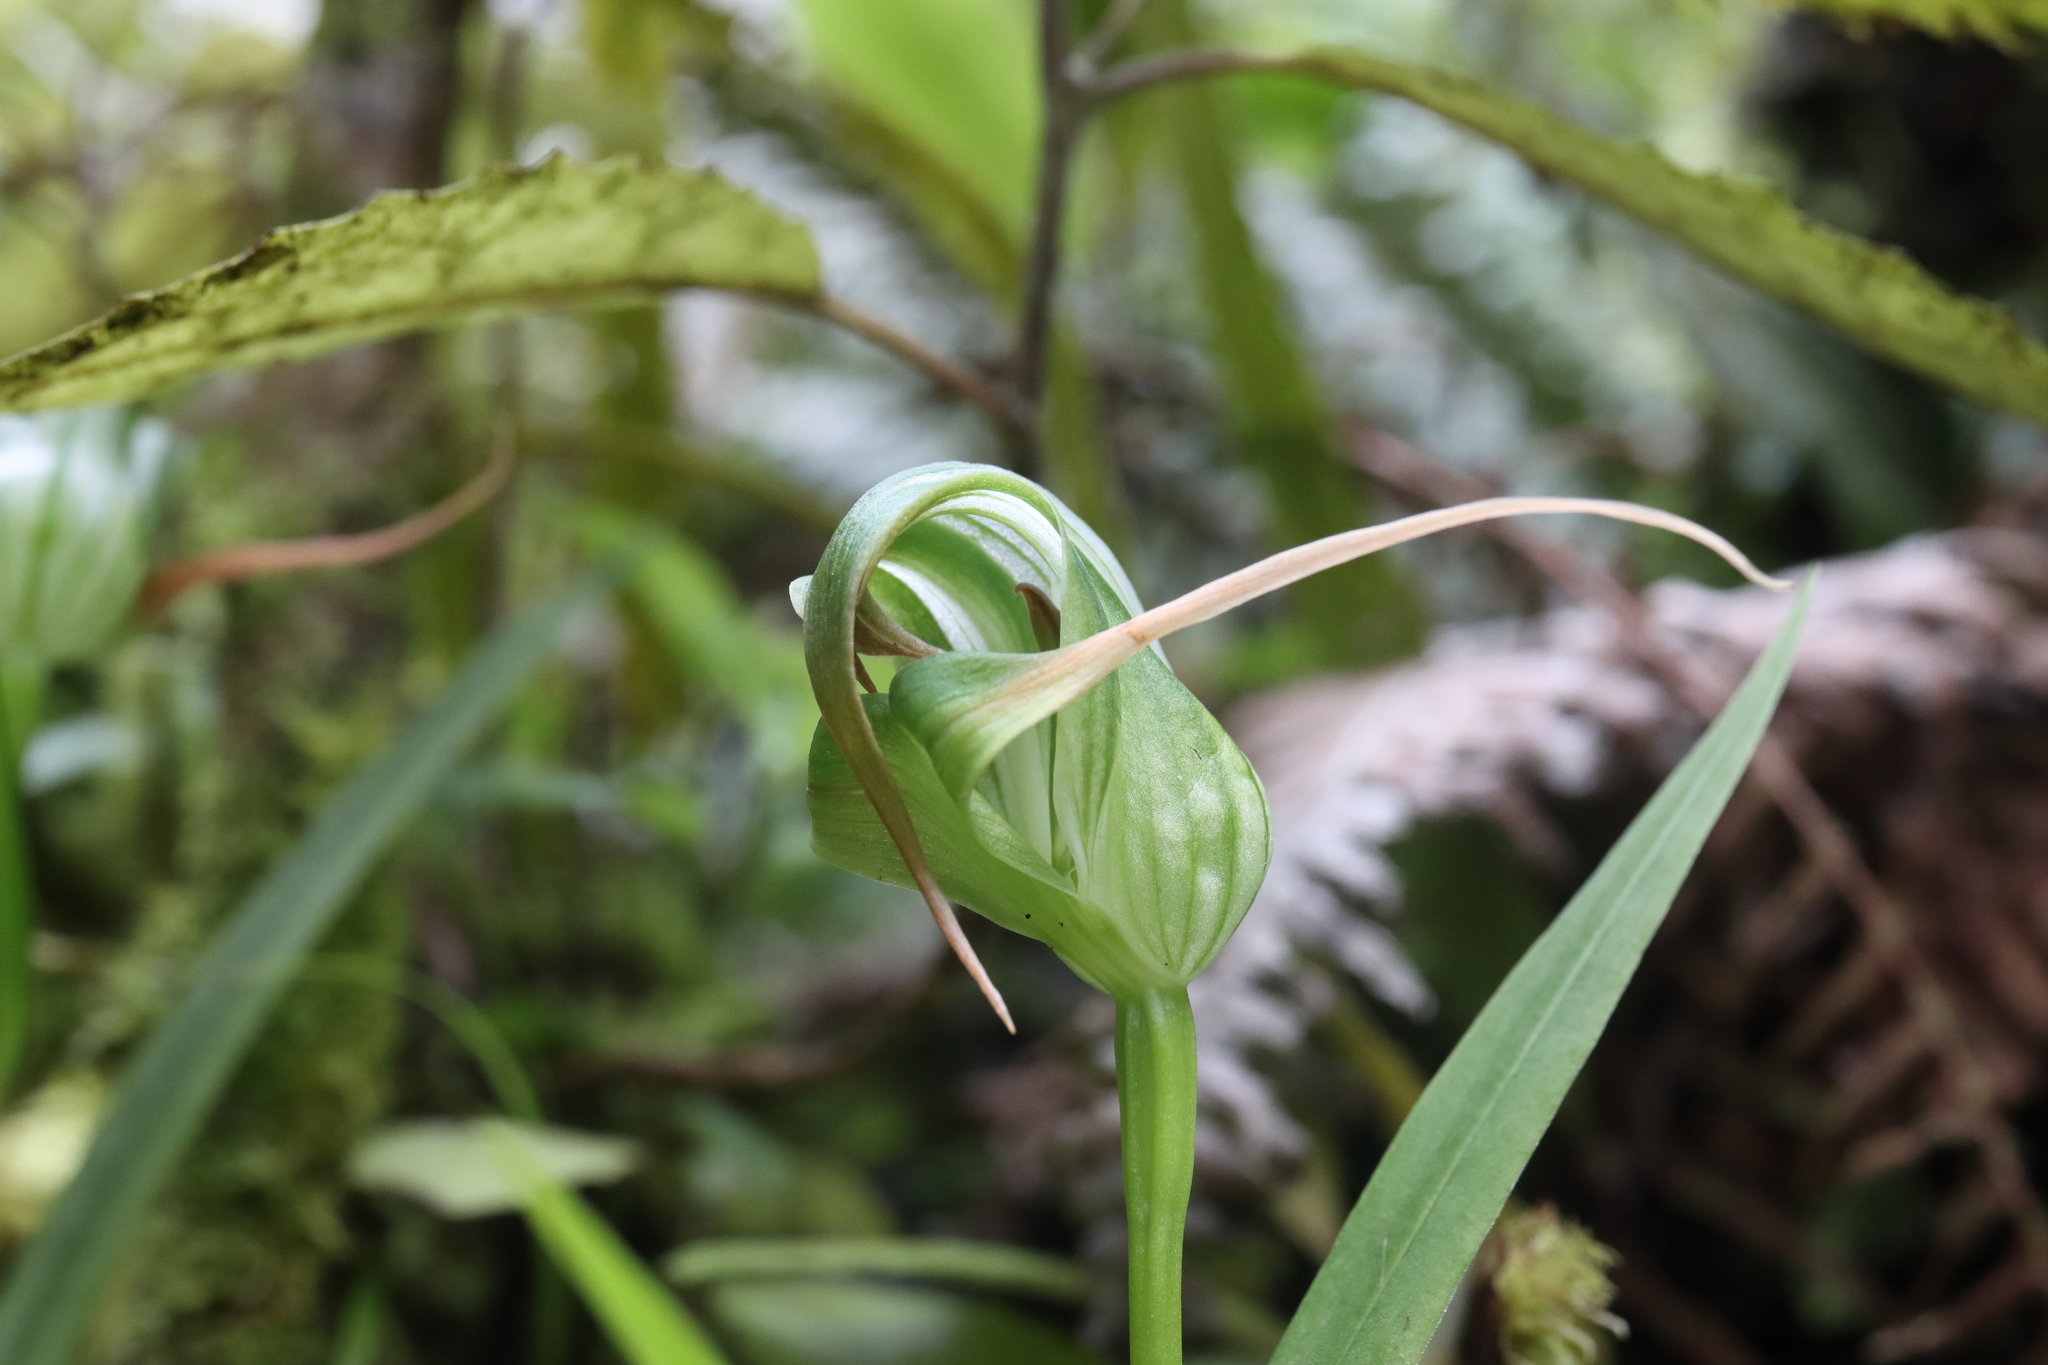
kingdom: Plantae
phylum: Tracheophyta
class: Liliopsida
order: Asparagales
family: Orchidaceae
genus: Pterostylis
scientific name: Pterostylis patens
